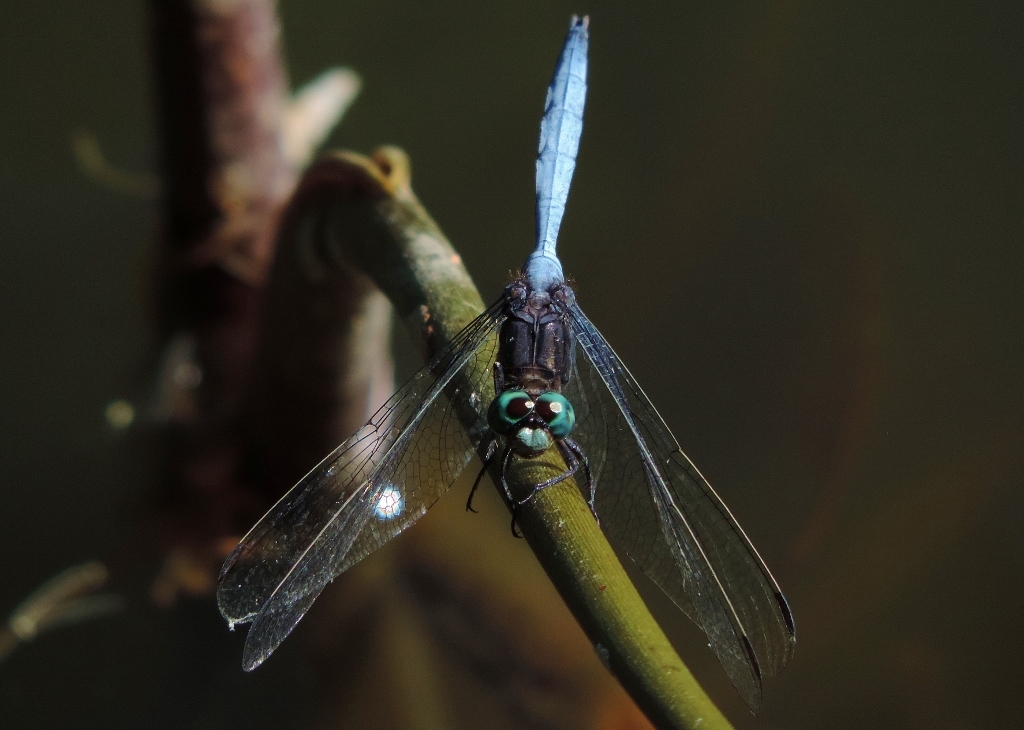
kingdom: Animalia
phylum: Arthropoda
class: Insecta
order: Odonata
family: Libellulidae
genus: Orthetrum
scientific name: Orthetrum julia
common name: Julia skimmer
